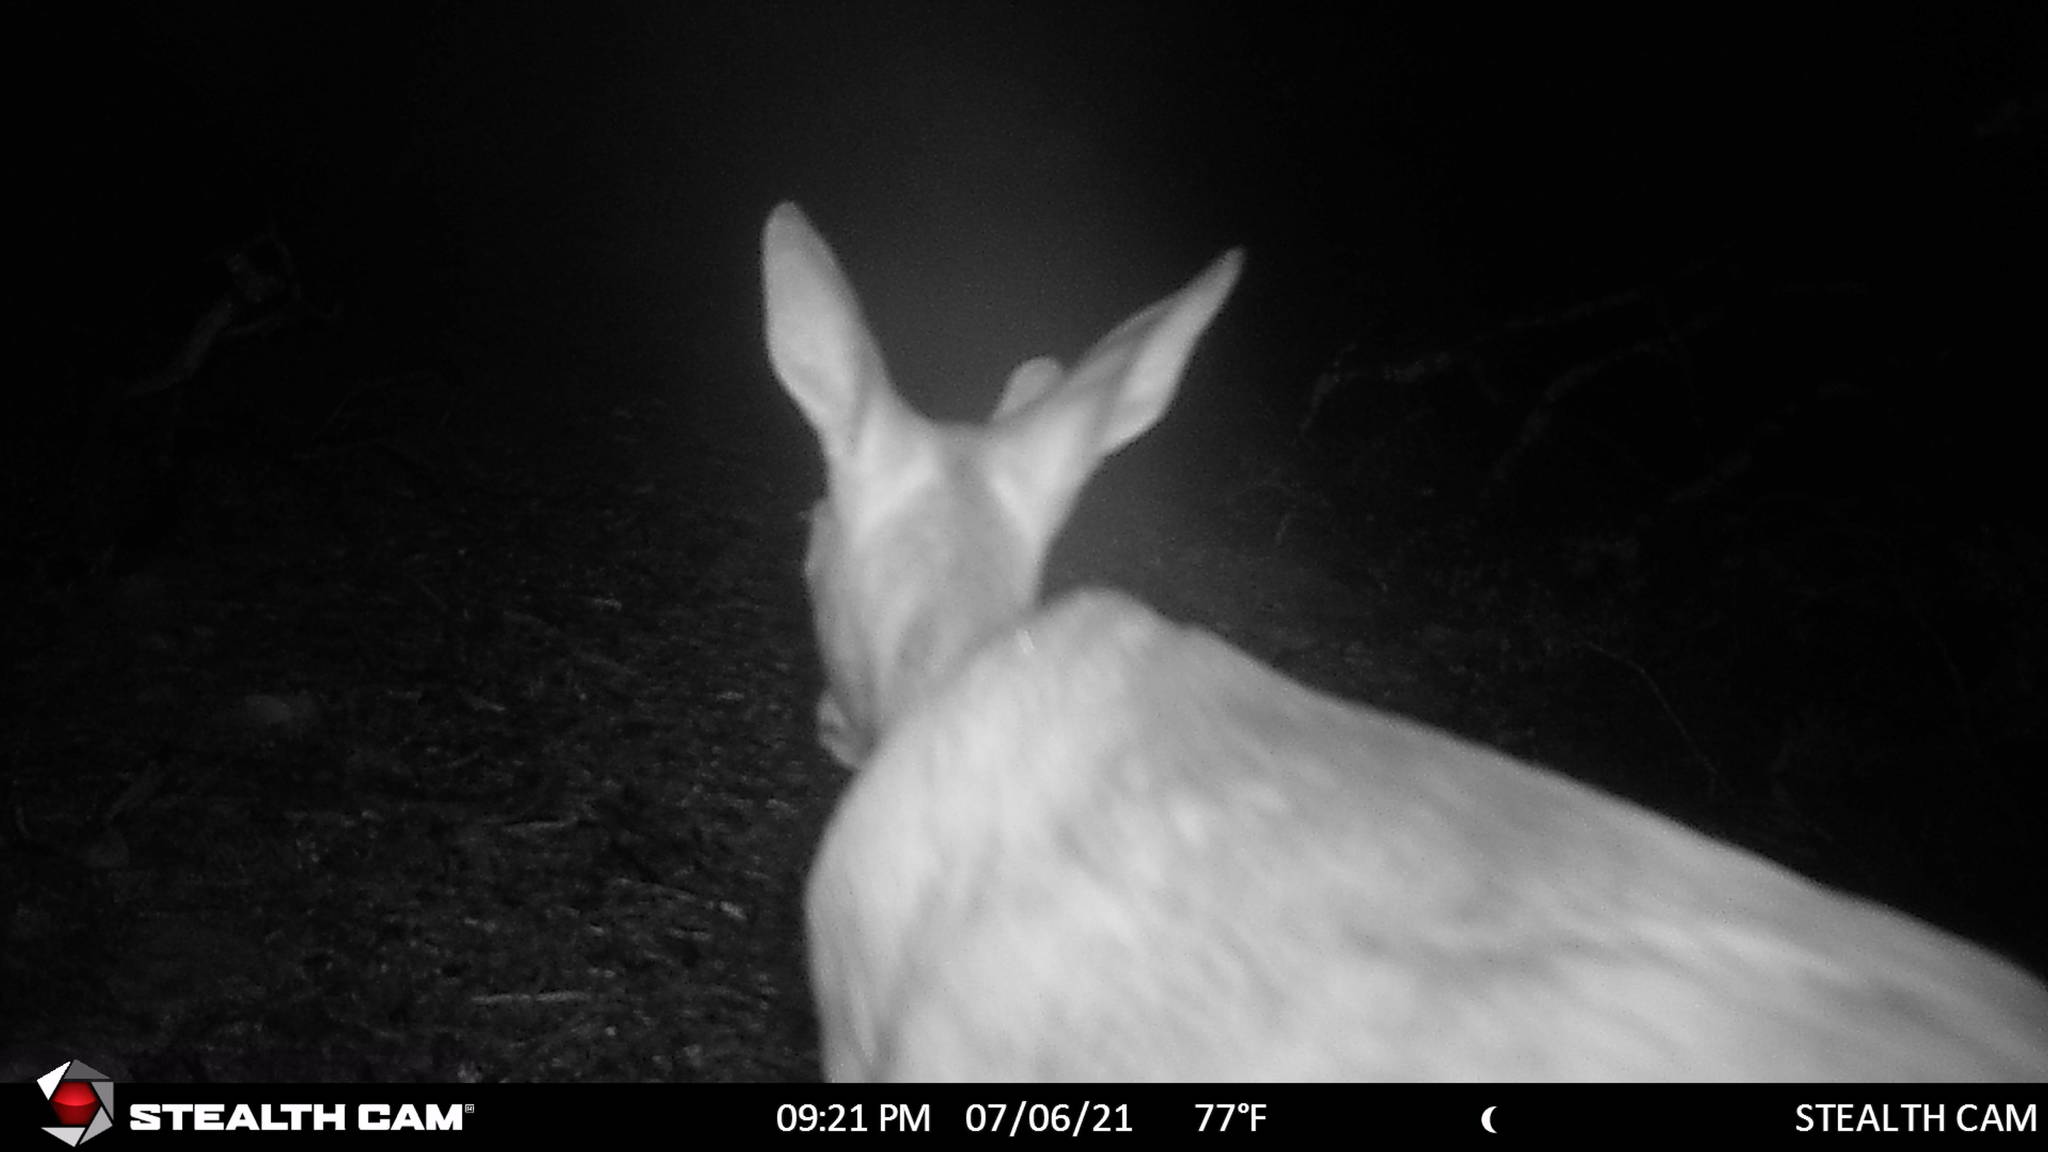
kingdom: Animalia
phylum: Chordata
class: Mammalia
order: Artiodactyla
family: Cervidae
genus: Odocoileus
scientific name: Odocoileus virginianus
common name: White-tailed deer
